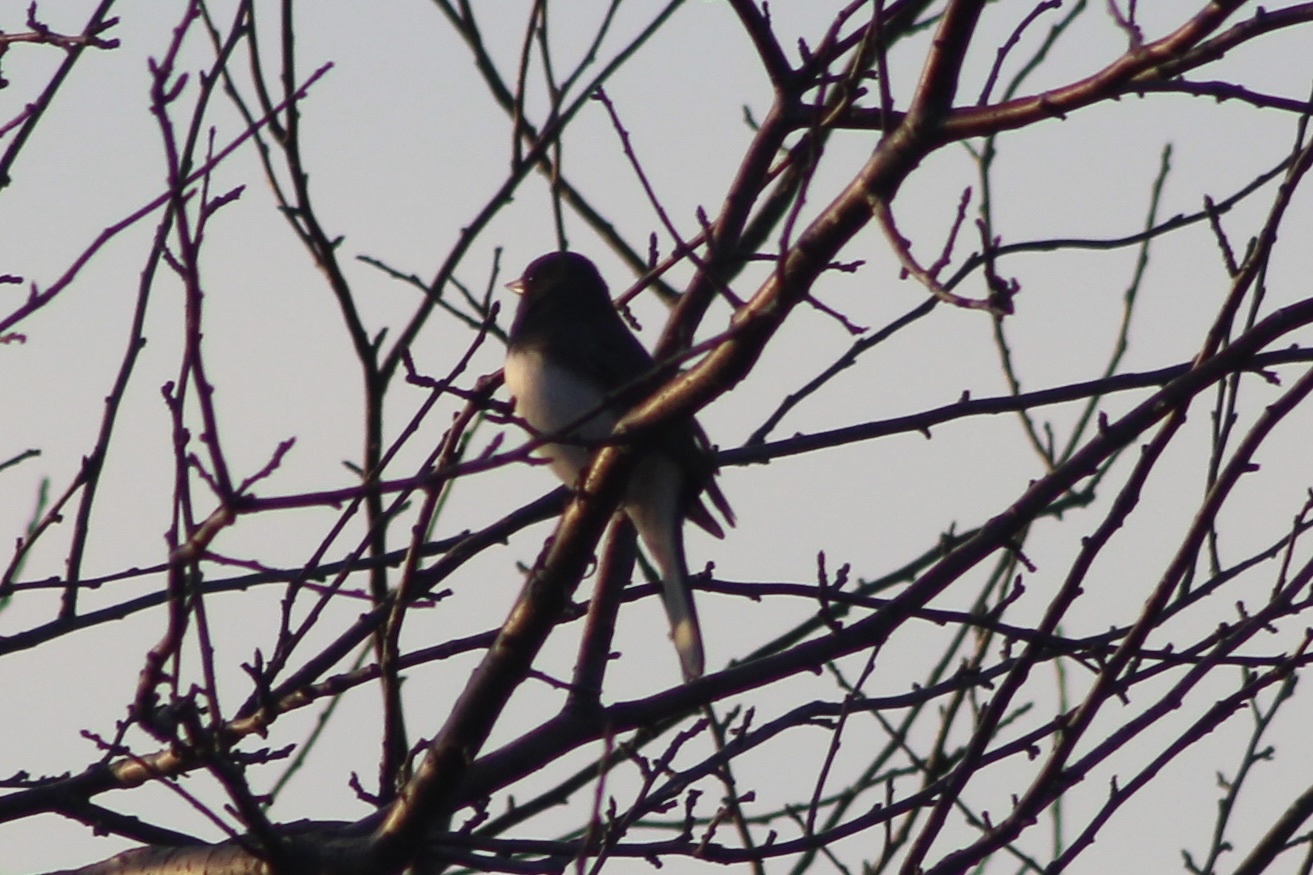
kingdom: Animalia
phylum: Chordata
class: Aves
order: Passeriformes
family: Passerellidae
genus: Junco
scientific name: Junco hyemalis
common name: Dark-eyed junco
